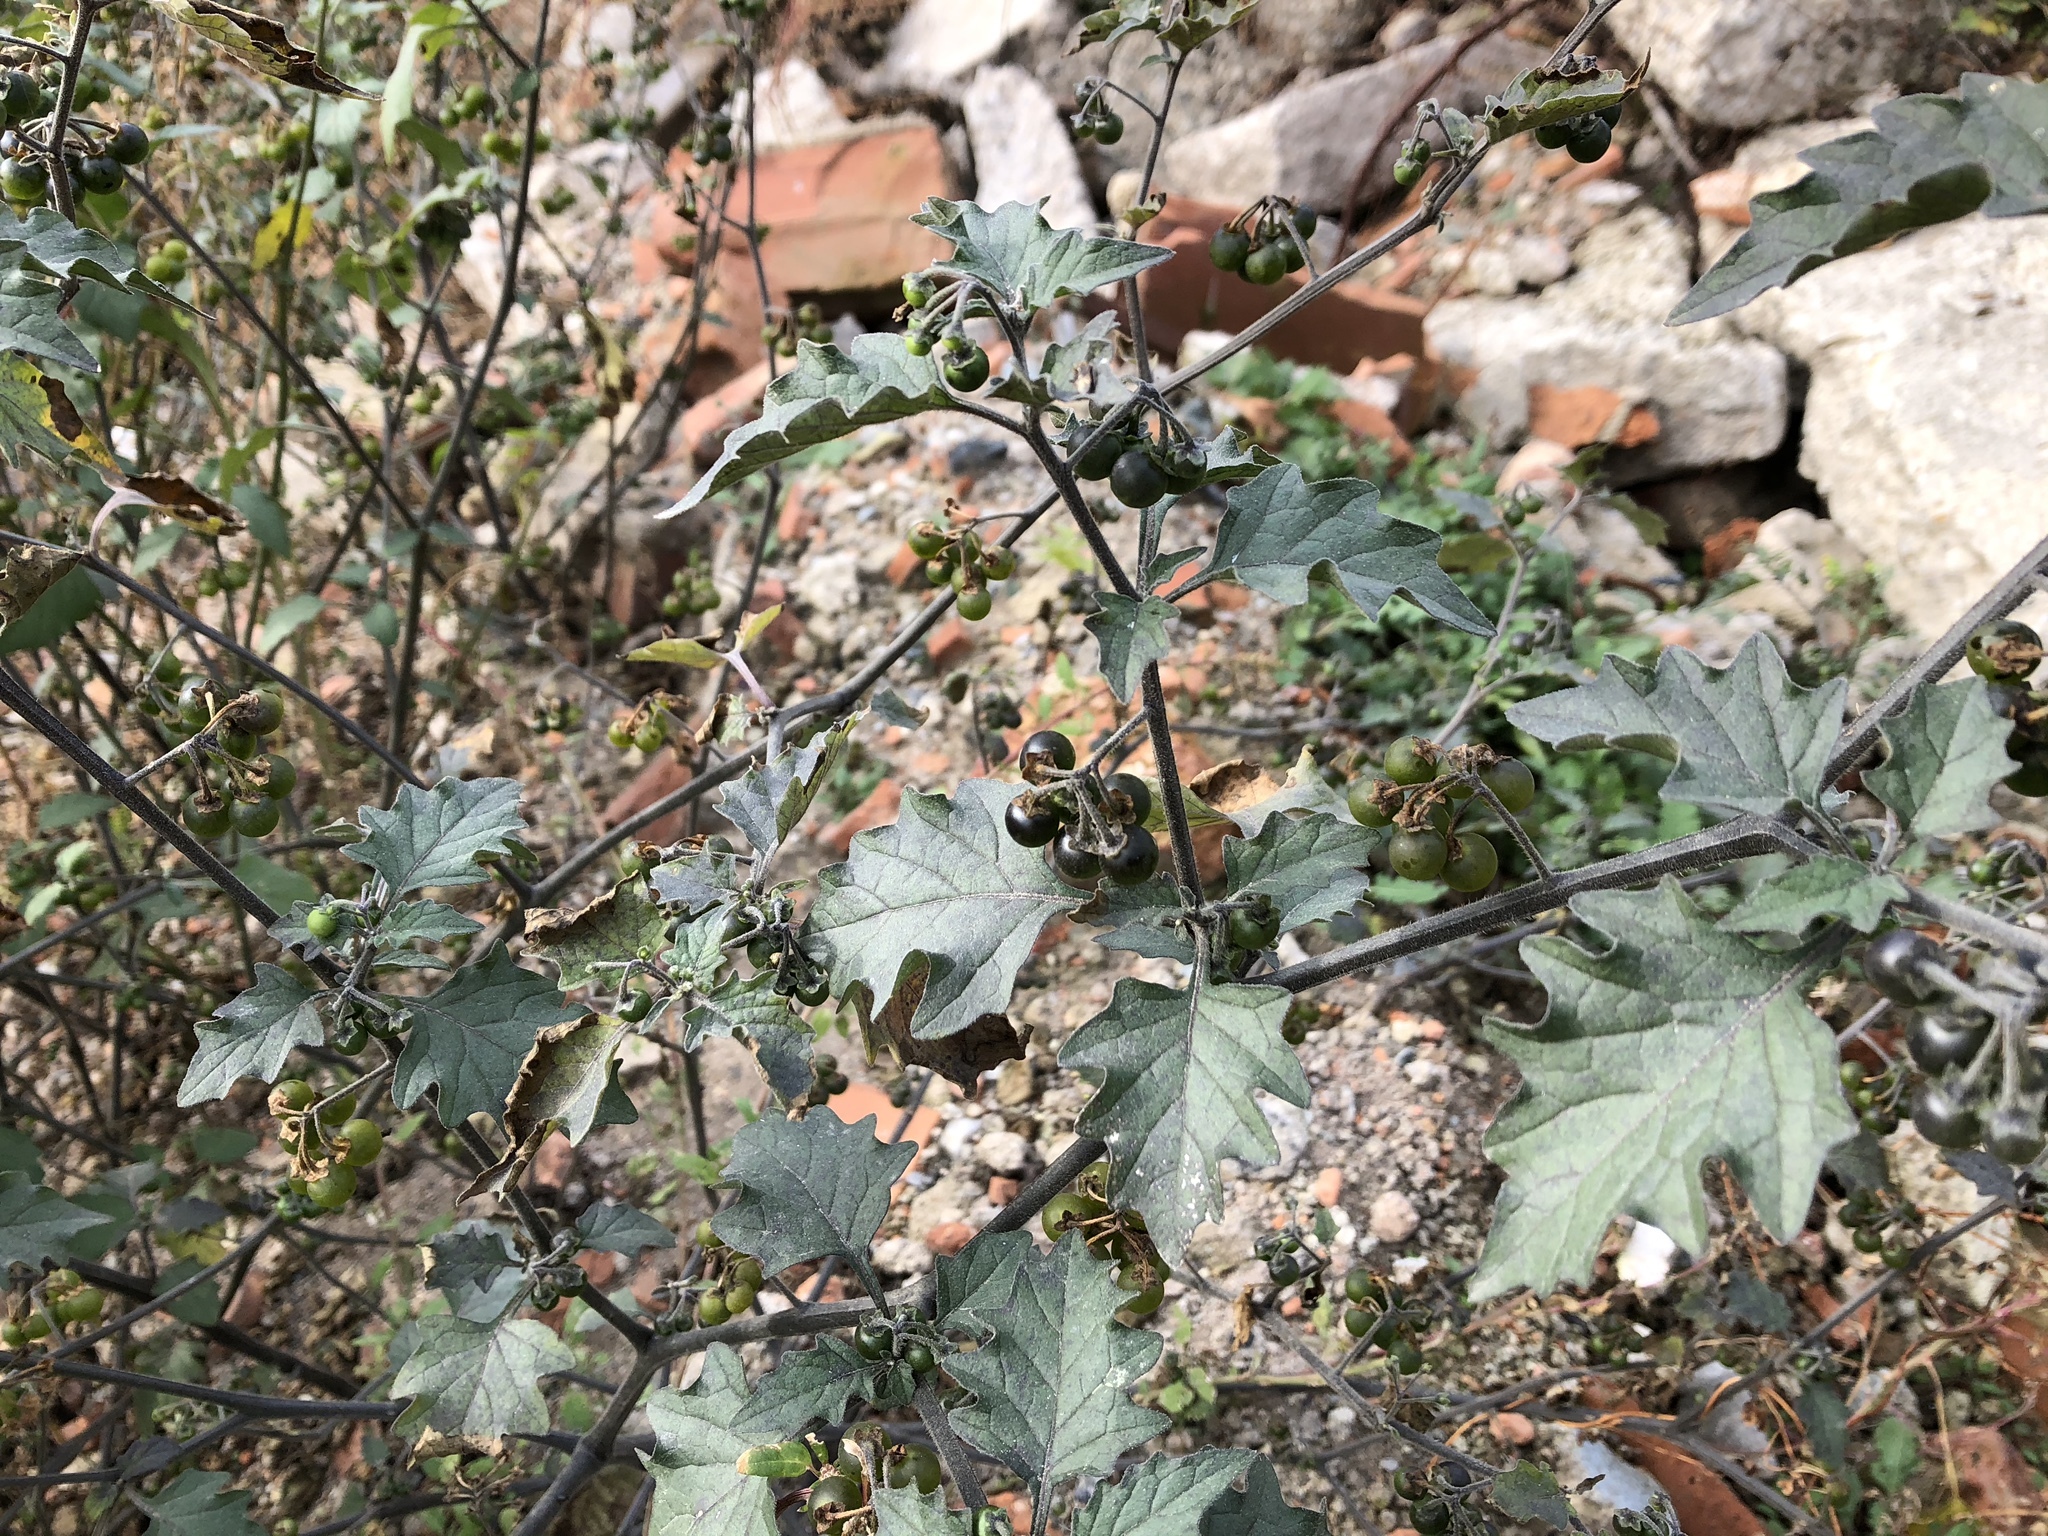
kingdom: Plantae
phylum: Tracheophyta
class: Magnoliopsida
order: Solanales
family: Solanaceae
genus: Solanum
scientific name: Solanum nigrum
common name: Black nightshade
